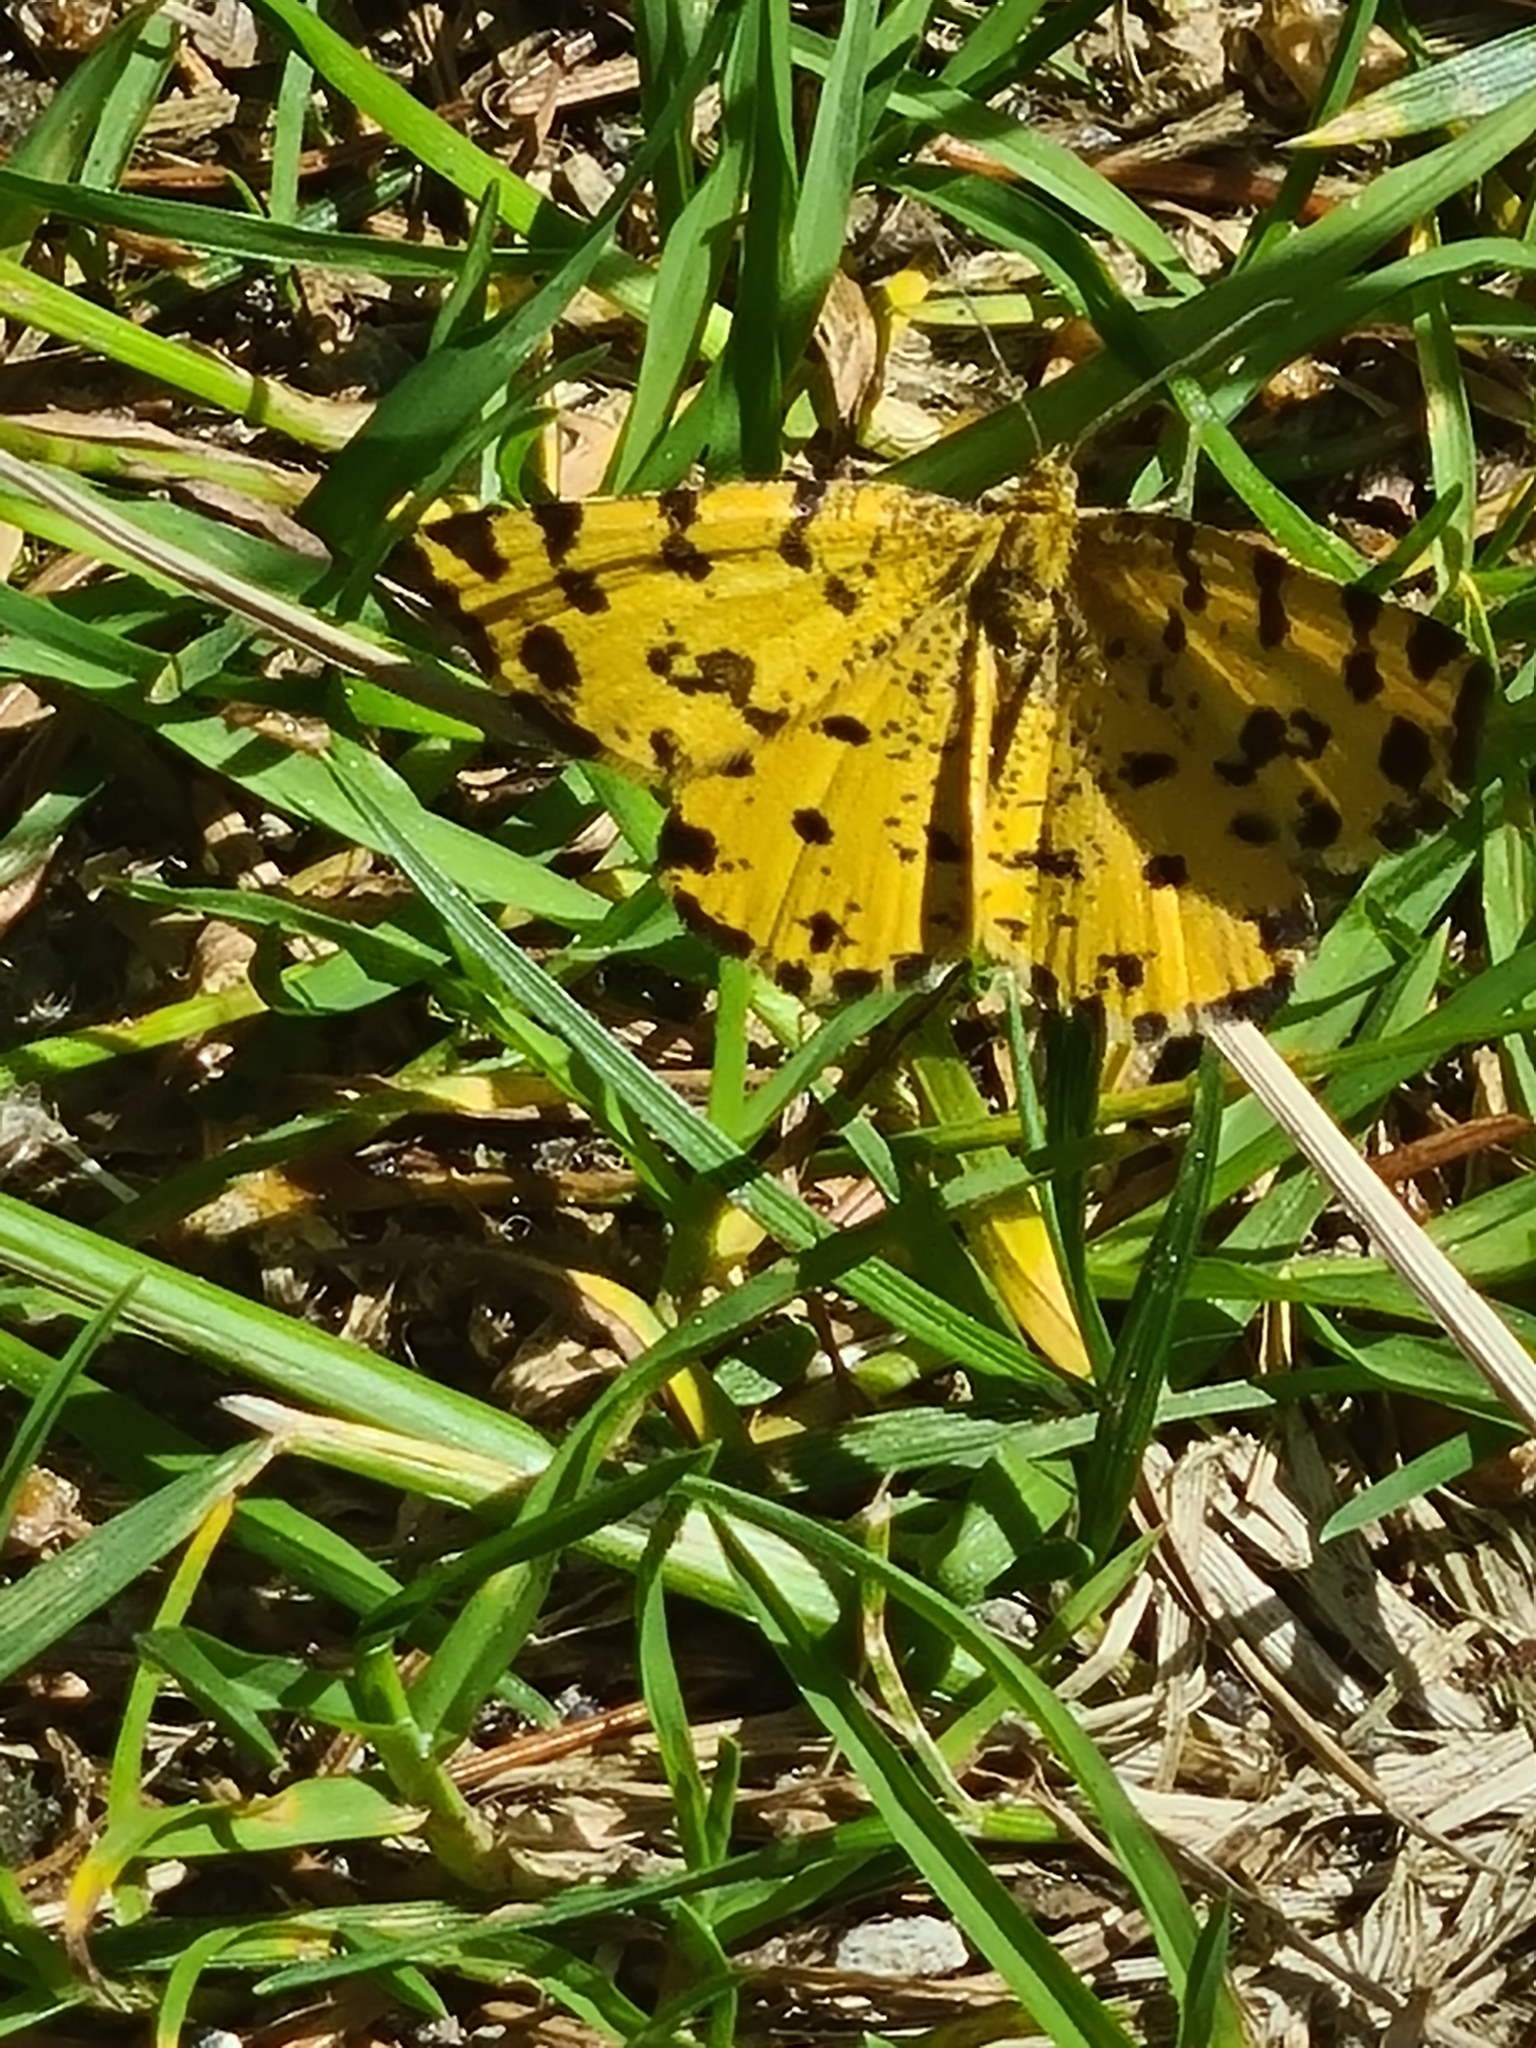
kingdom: Animalia
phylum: Arthropoda
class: Insecta
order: Lepidoptera
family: Geometridae
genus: Pseudopanthera
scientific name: Pseudopanthera macularia
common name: Speckled yellow
